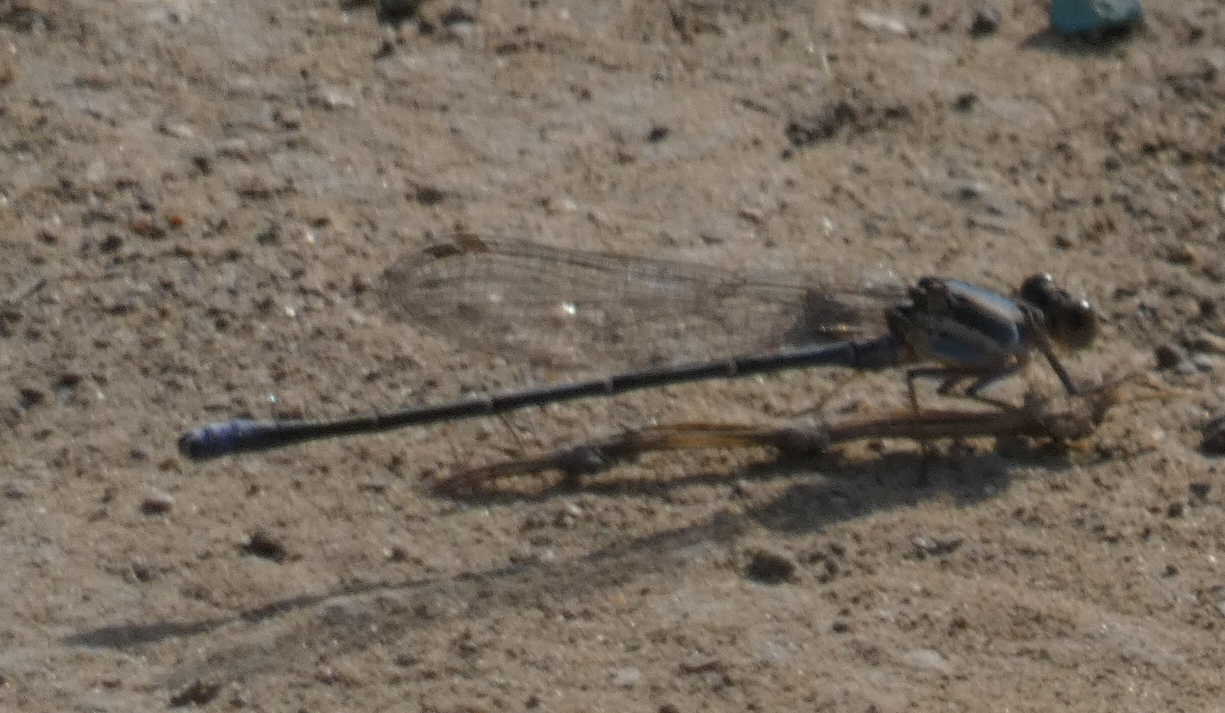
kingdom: Animalia
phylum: Arthropoda
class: Insecta
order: Odonata
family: Coenagrionidae
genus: Argia
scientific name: Argia moesta
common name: Powdered dancer
